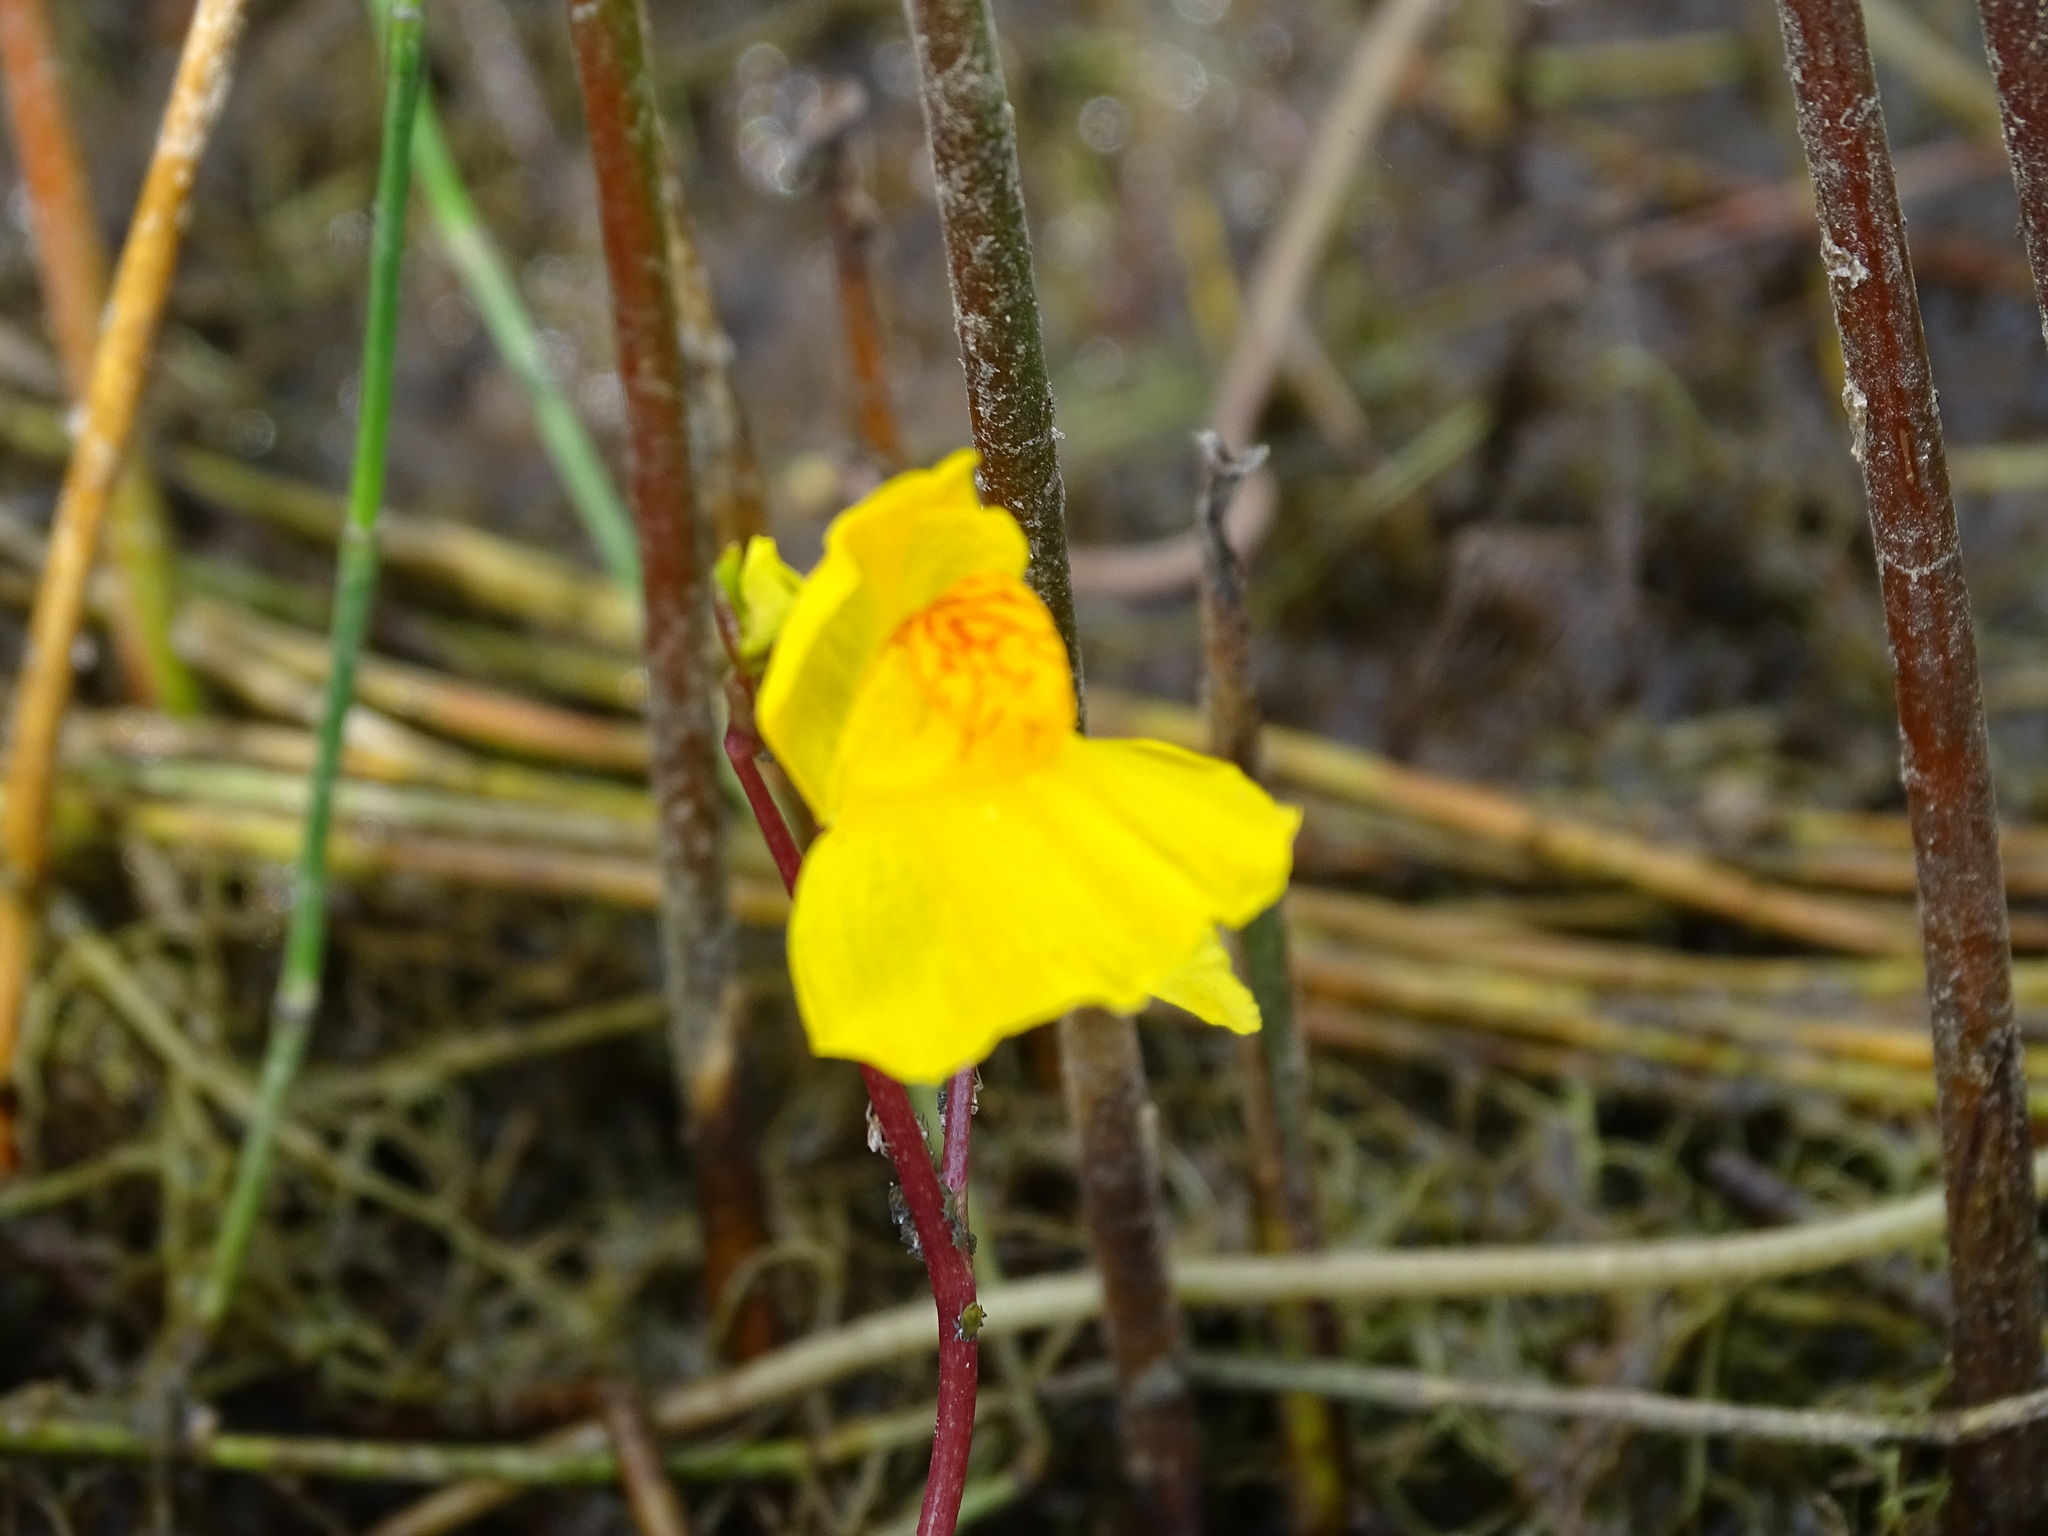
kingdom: Plantae
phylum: Tracheophyta
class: Magnoliopsida
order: Lamiales
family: Lentibulariaceae
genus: Utricularia
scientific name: Utricularia macrorhiza
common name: Common bladderwort
